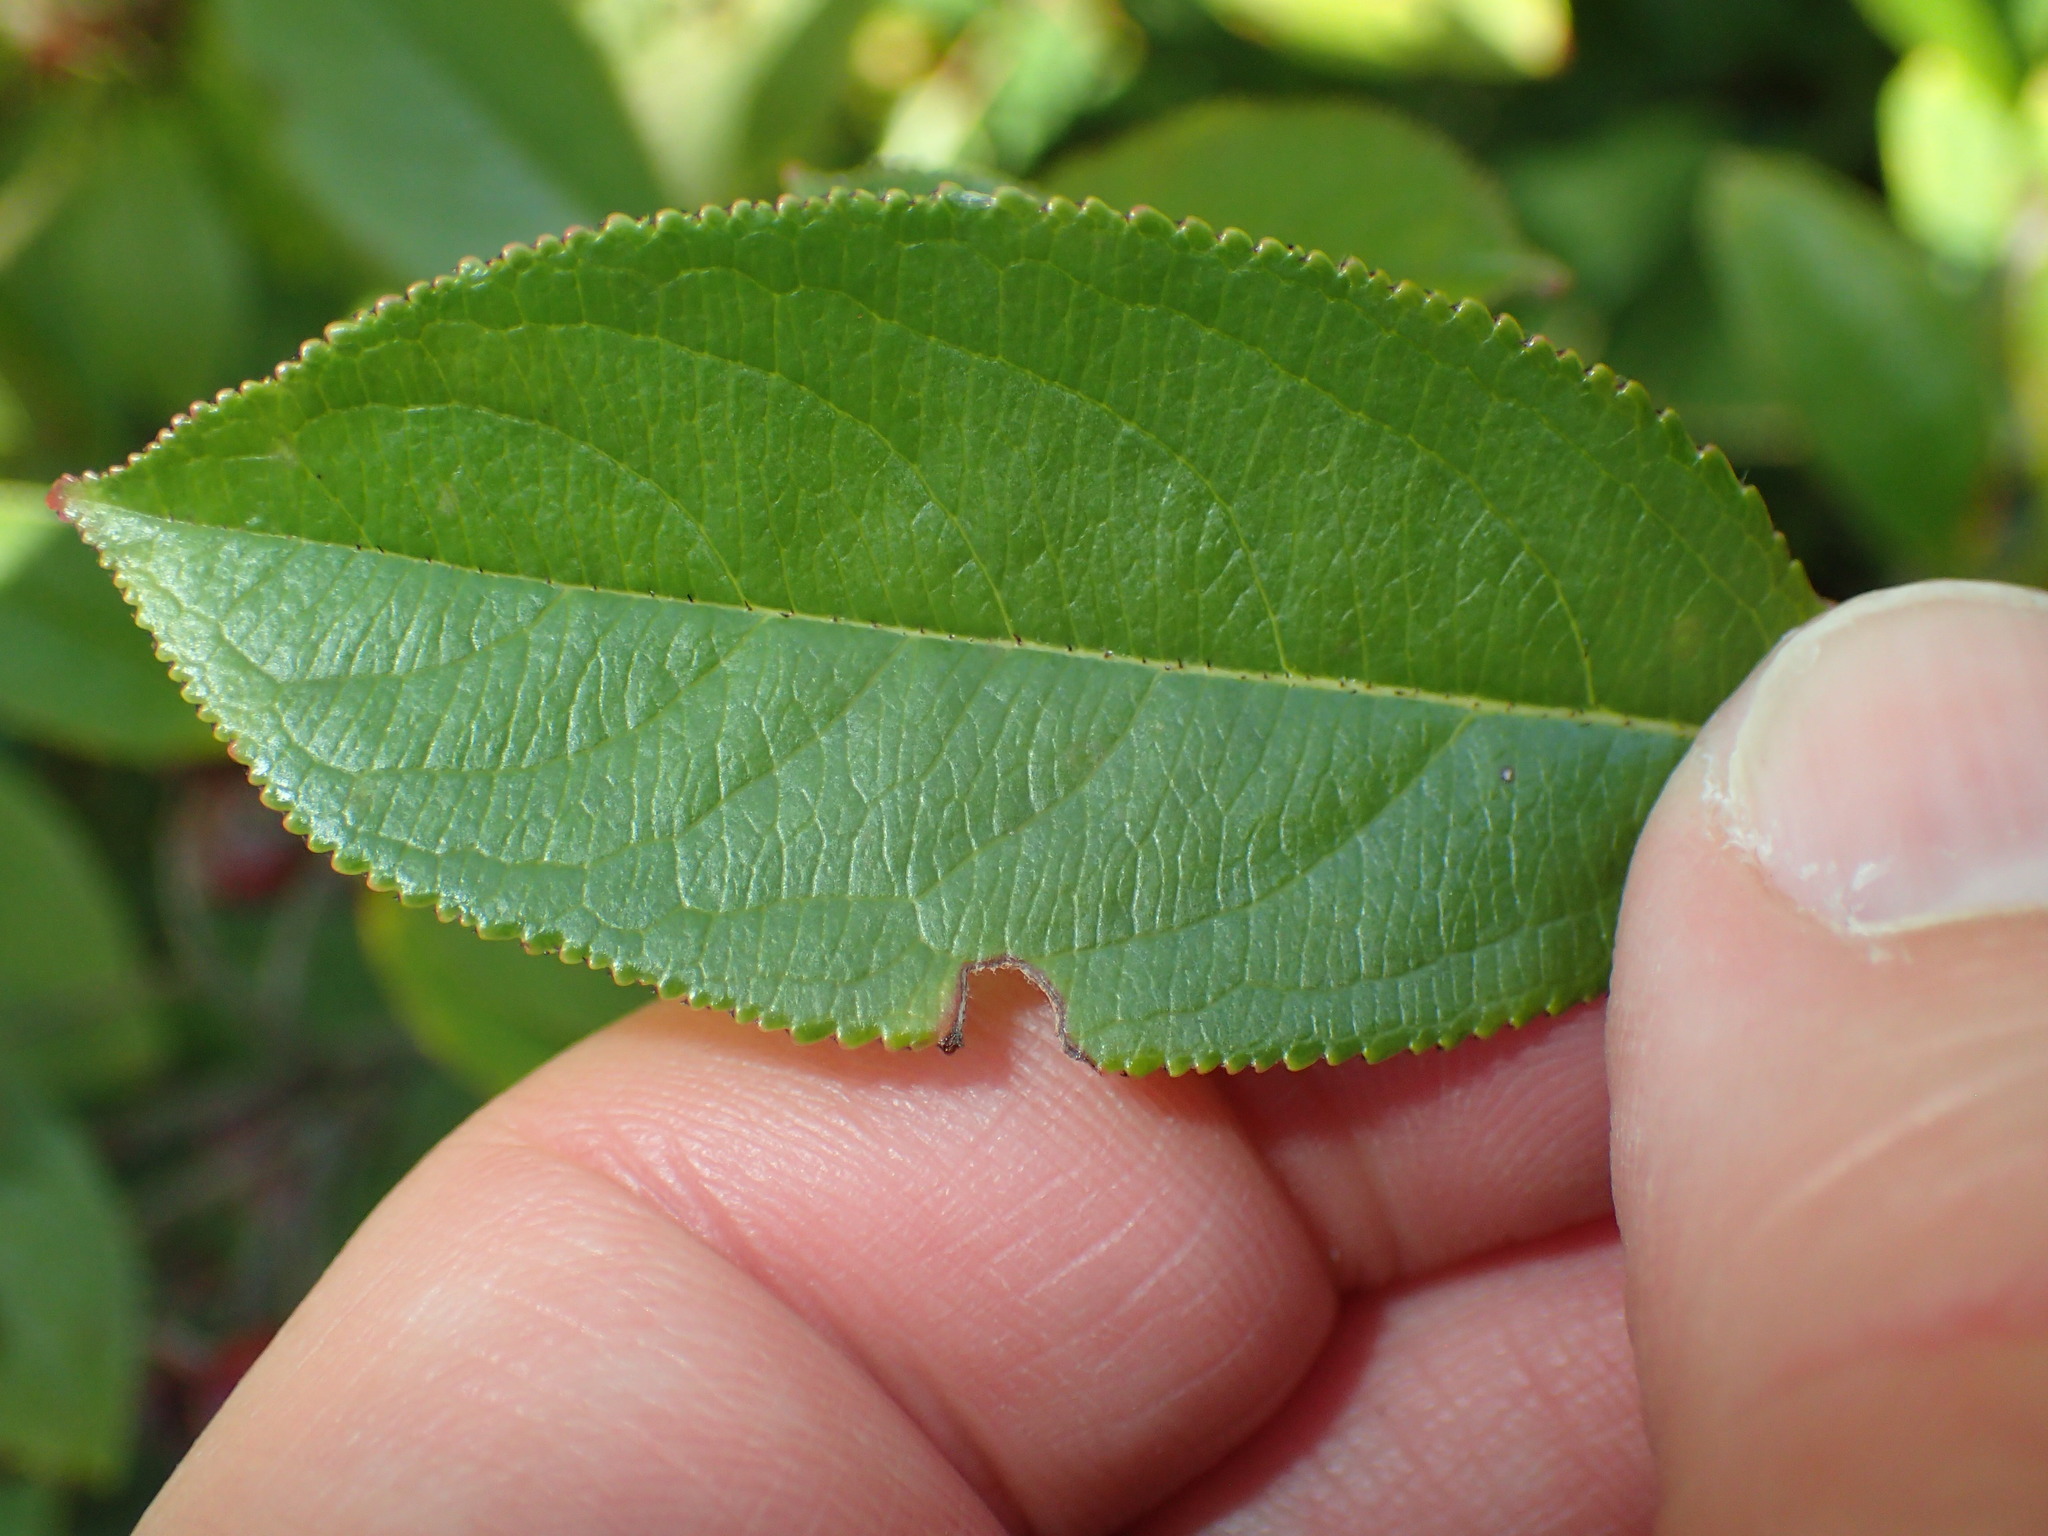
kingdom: Plantae
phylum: Tracheophyta
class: Magnoliopsida
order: Rosales
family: Rosaceae
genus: Aronia
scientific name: Aronia prunifolia
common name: Purple chokeberry
